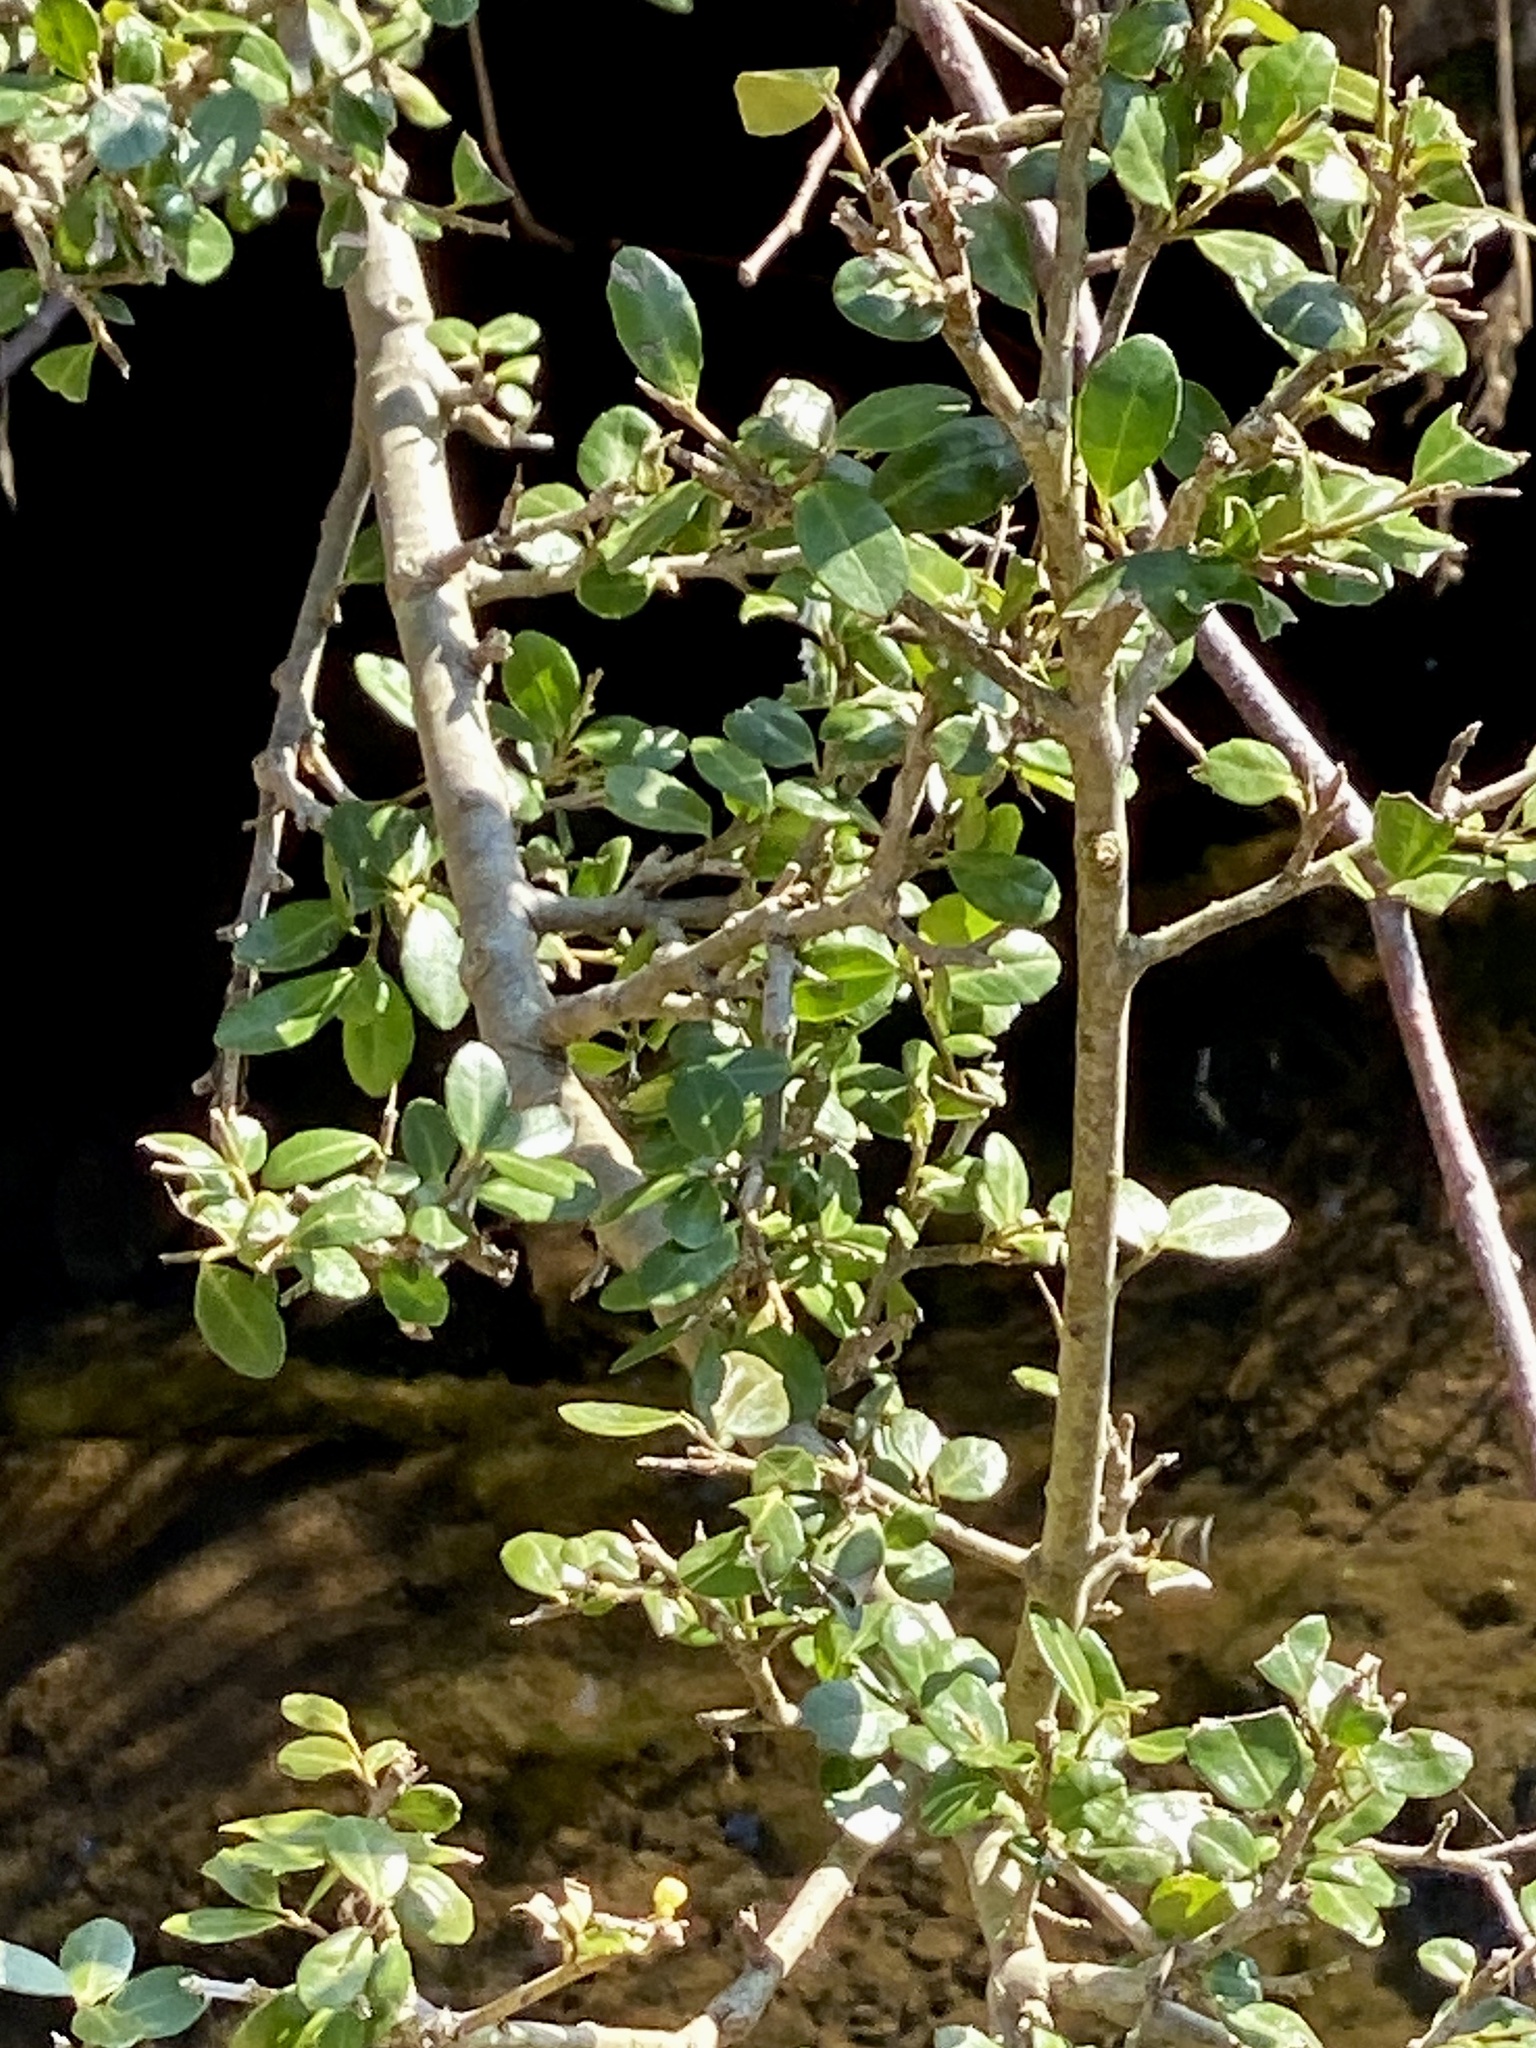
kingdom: Plantae
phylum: Tracheophyta
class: Magnoliopsida
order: Aquifoliales
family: Aquifoliaceae
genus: Ilex
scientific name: Ilex crenata
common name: Japanese holly
